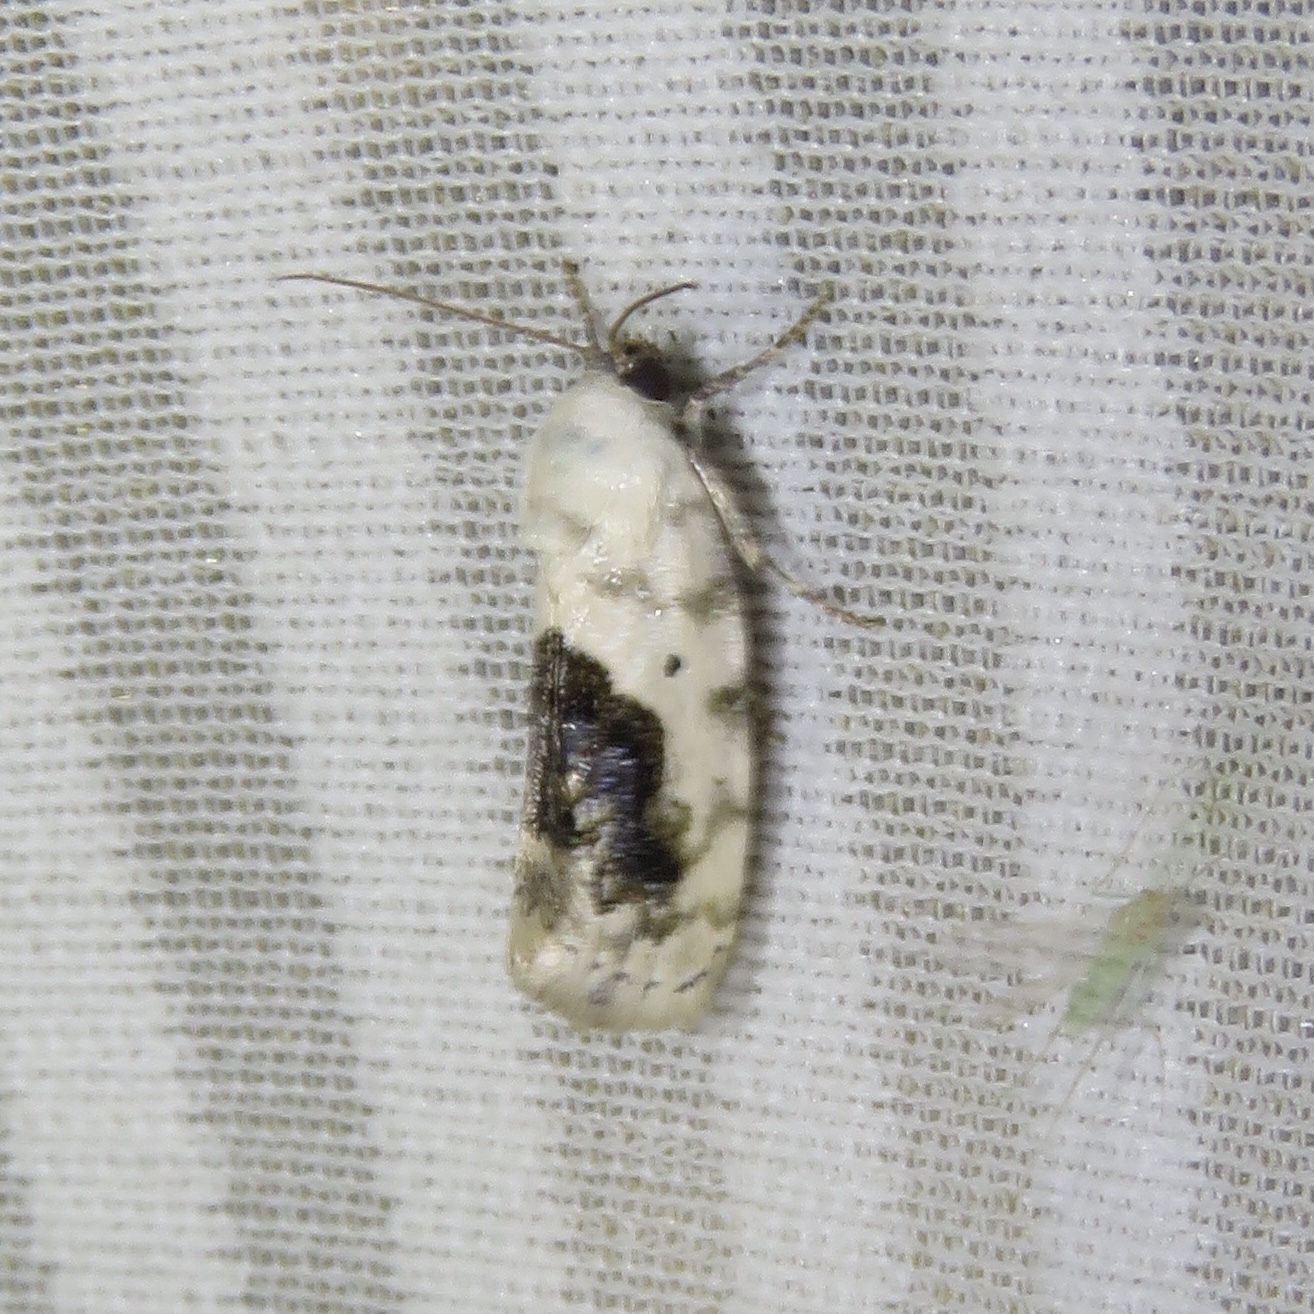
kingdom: Animalia
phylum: Arthropoda
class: Insecta
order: Lepidoptera
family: Noctuidae
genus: Acontia
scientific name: Acontia erastrioides
